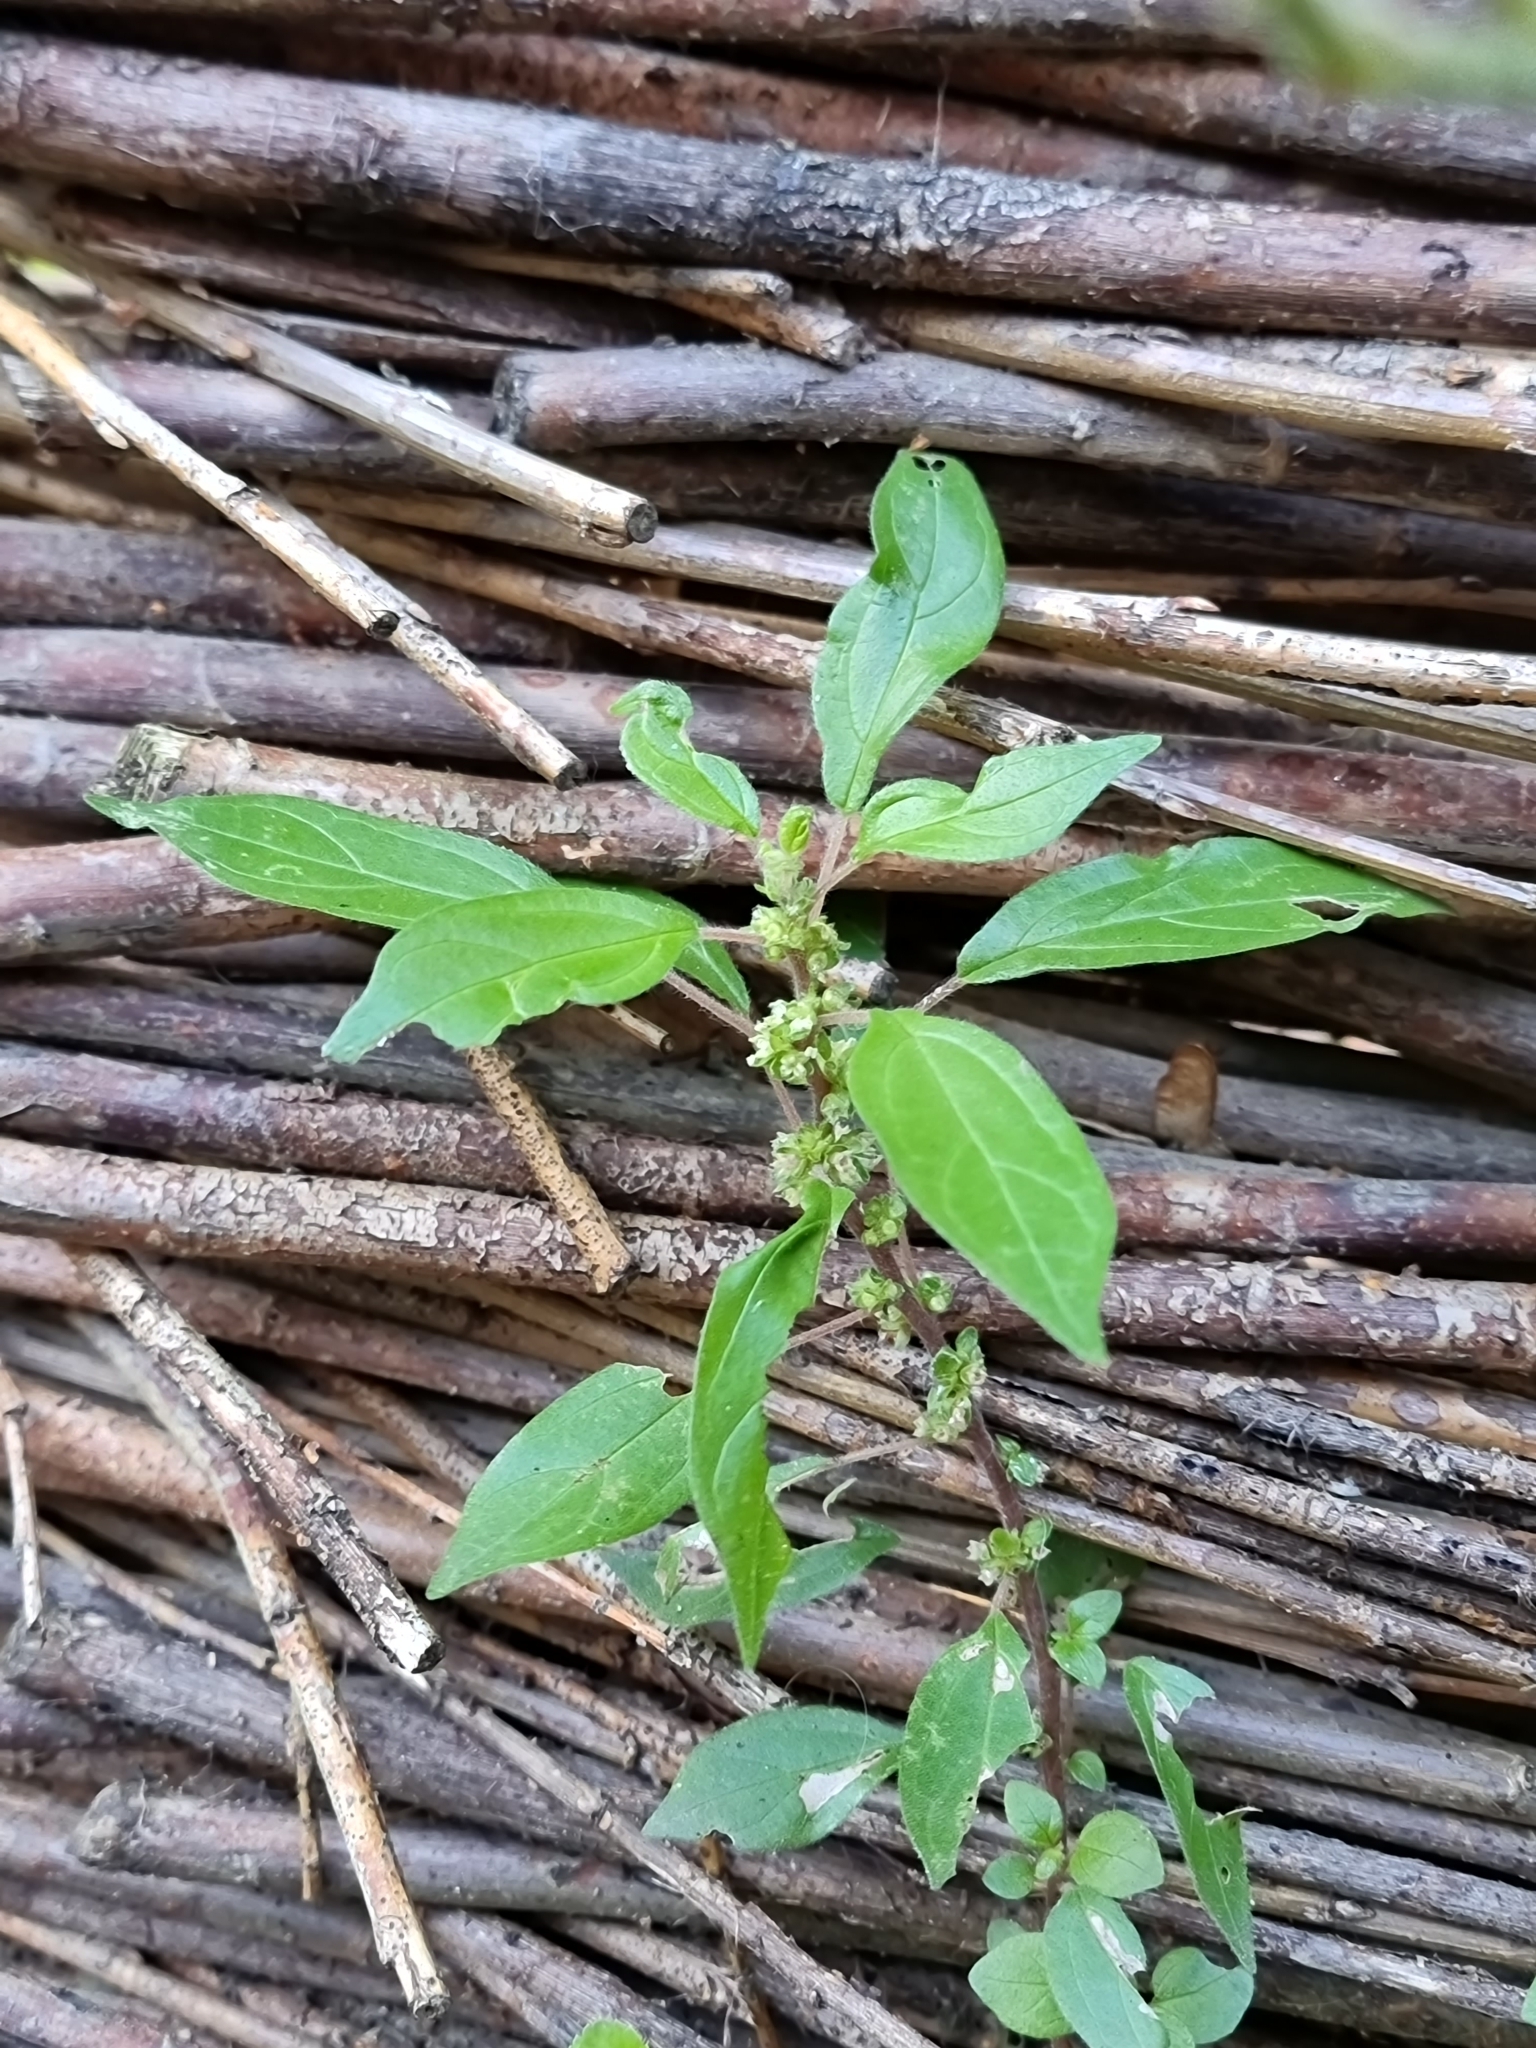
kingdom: Plantae
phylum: Tracheophyta
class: Magnoliopsida
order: Rosales
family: Urticaceae
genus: Parietaria
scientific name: Parietaria judaica
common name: Pellitory-of-the-wall
